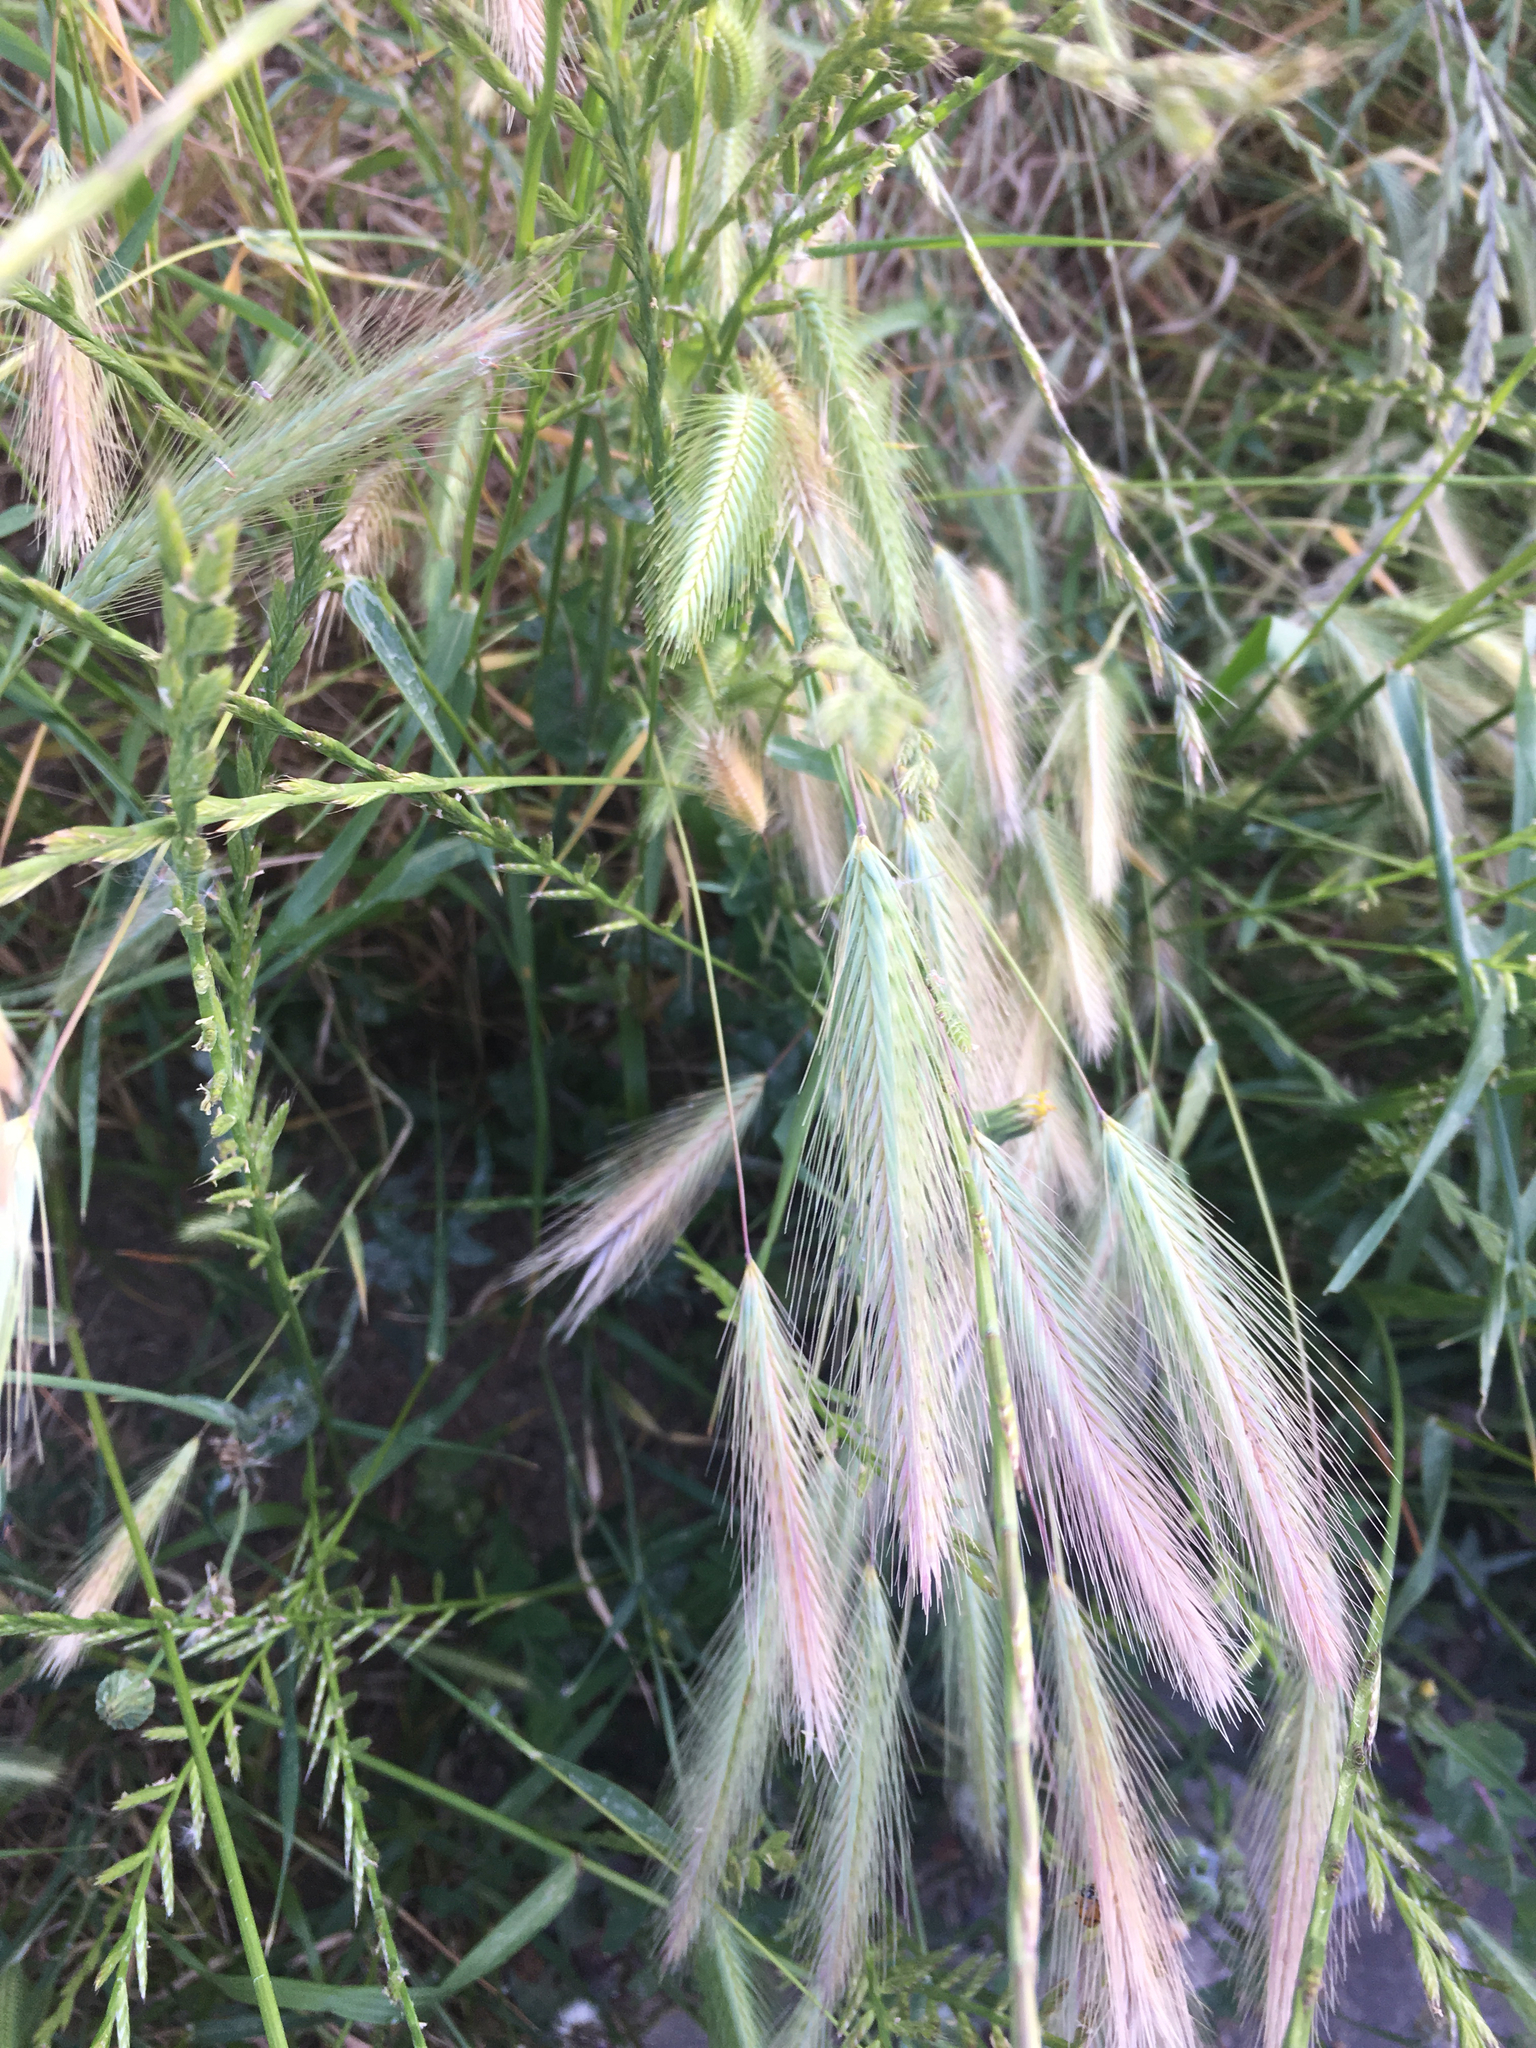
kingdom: Plantae
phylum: Tracheophyta
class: Liliopsida
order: Poales
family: Poaceae
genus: Hordeum
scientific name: Hordeum murinum
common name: Wall barley
